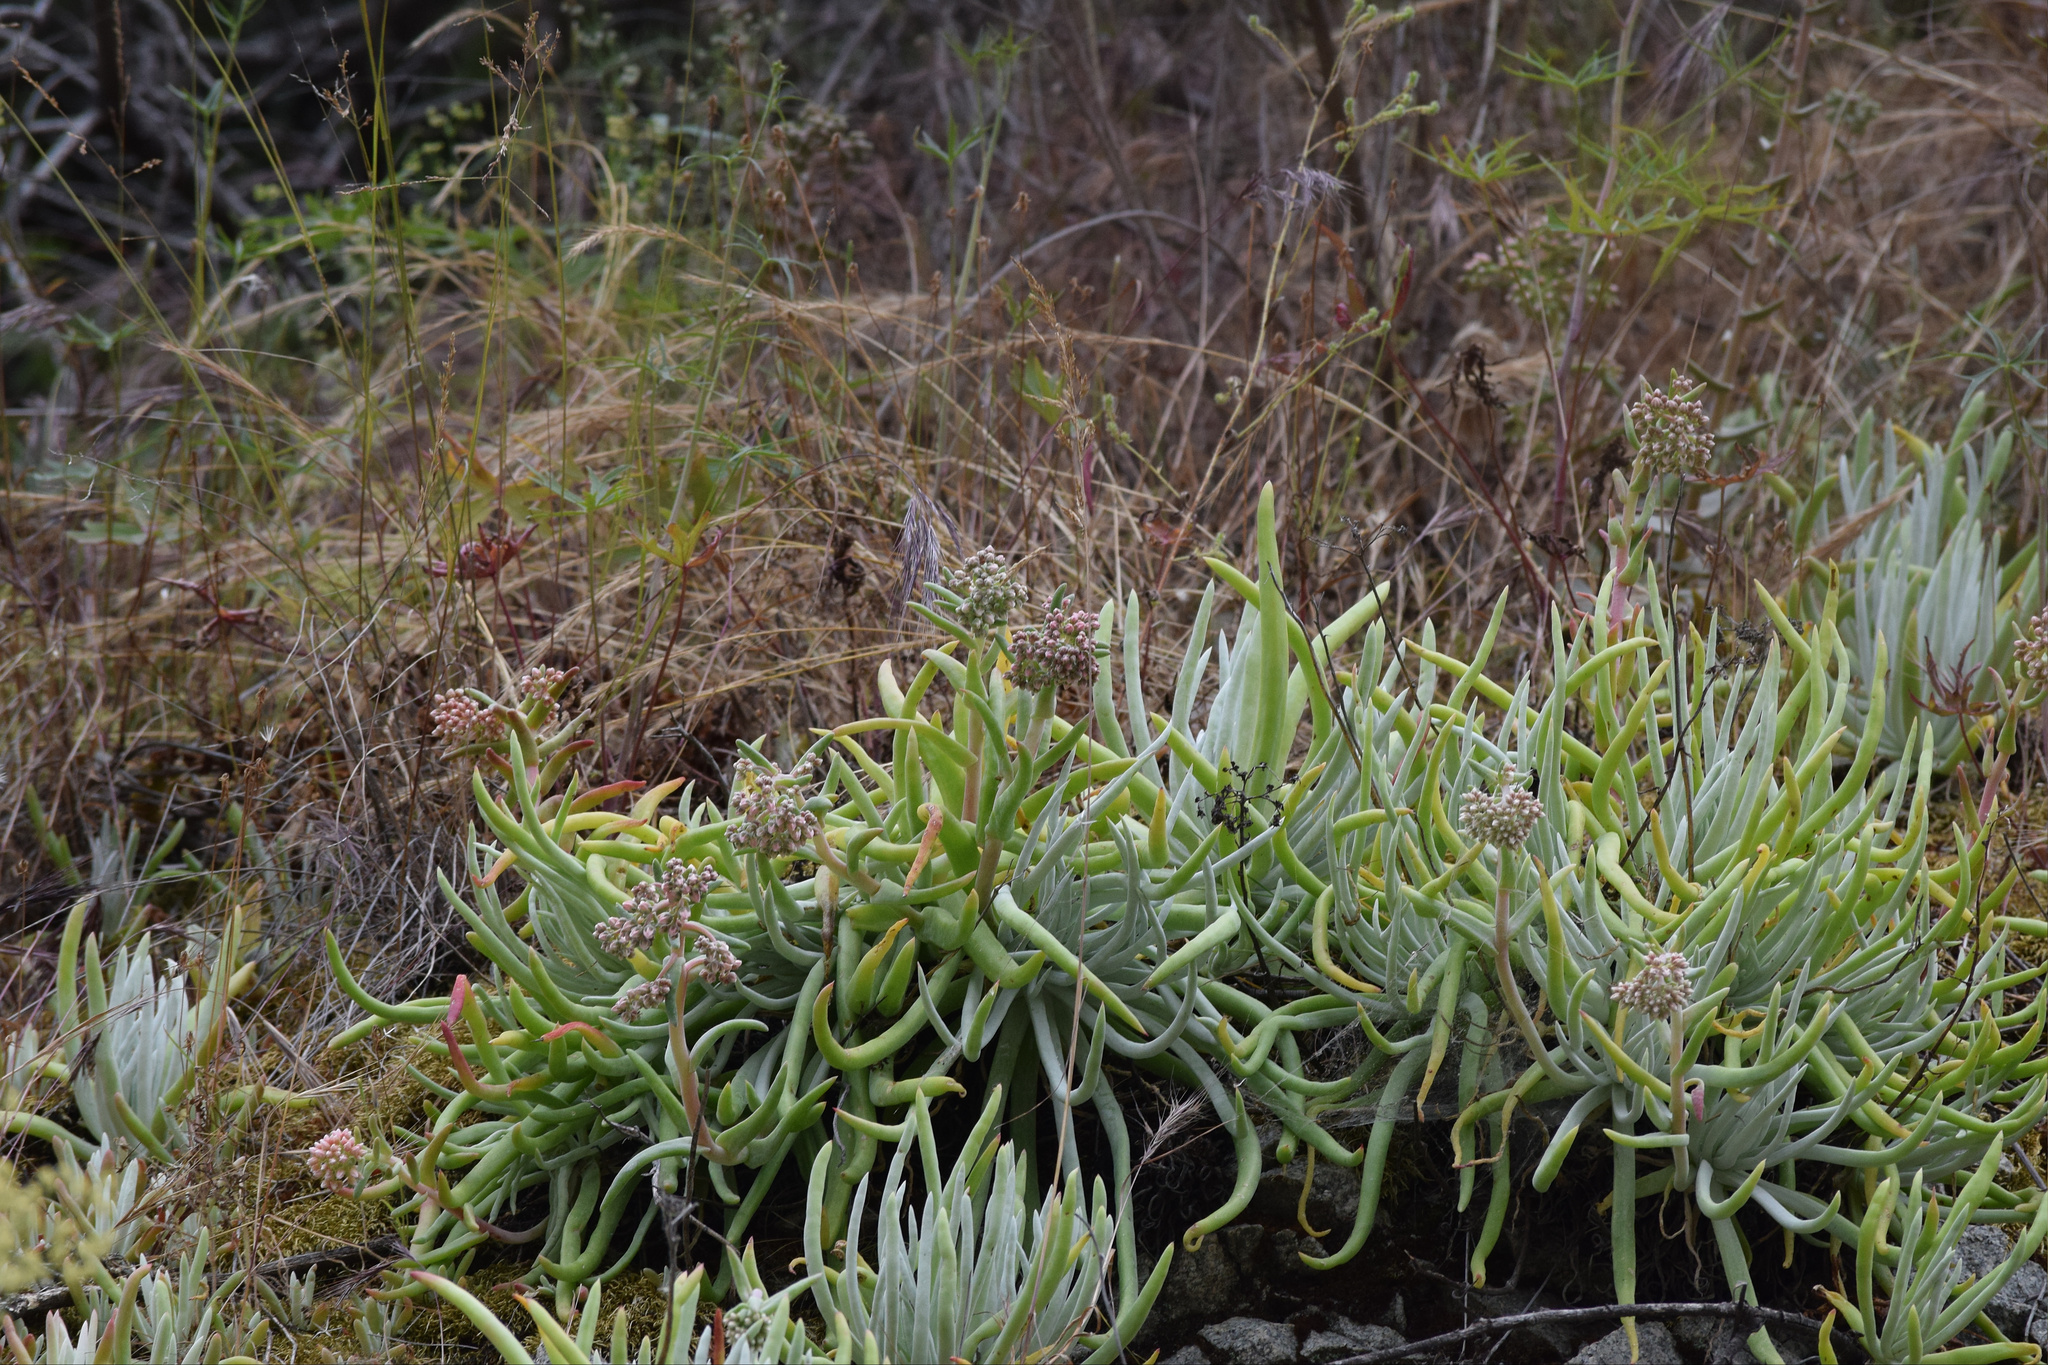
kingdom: Plantae
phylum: Tracheophyta
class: Magnoliopsida
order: Saxifragales
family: Crassulaceae
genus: Dudleya
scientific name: Dudleya densiflora
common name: San gabriel mountains dudleya
